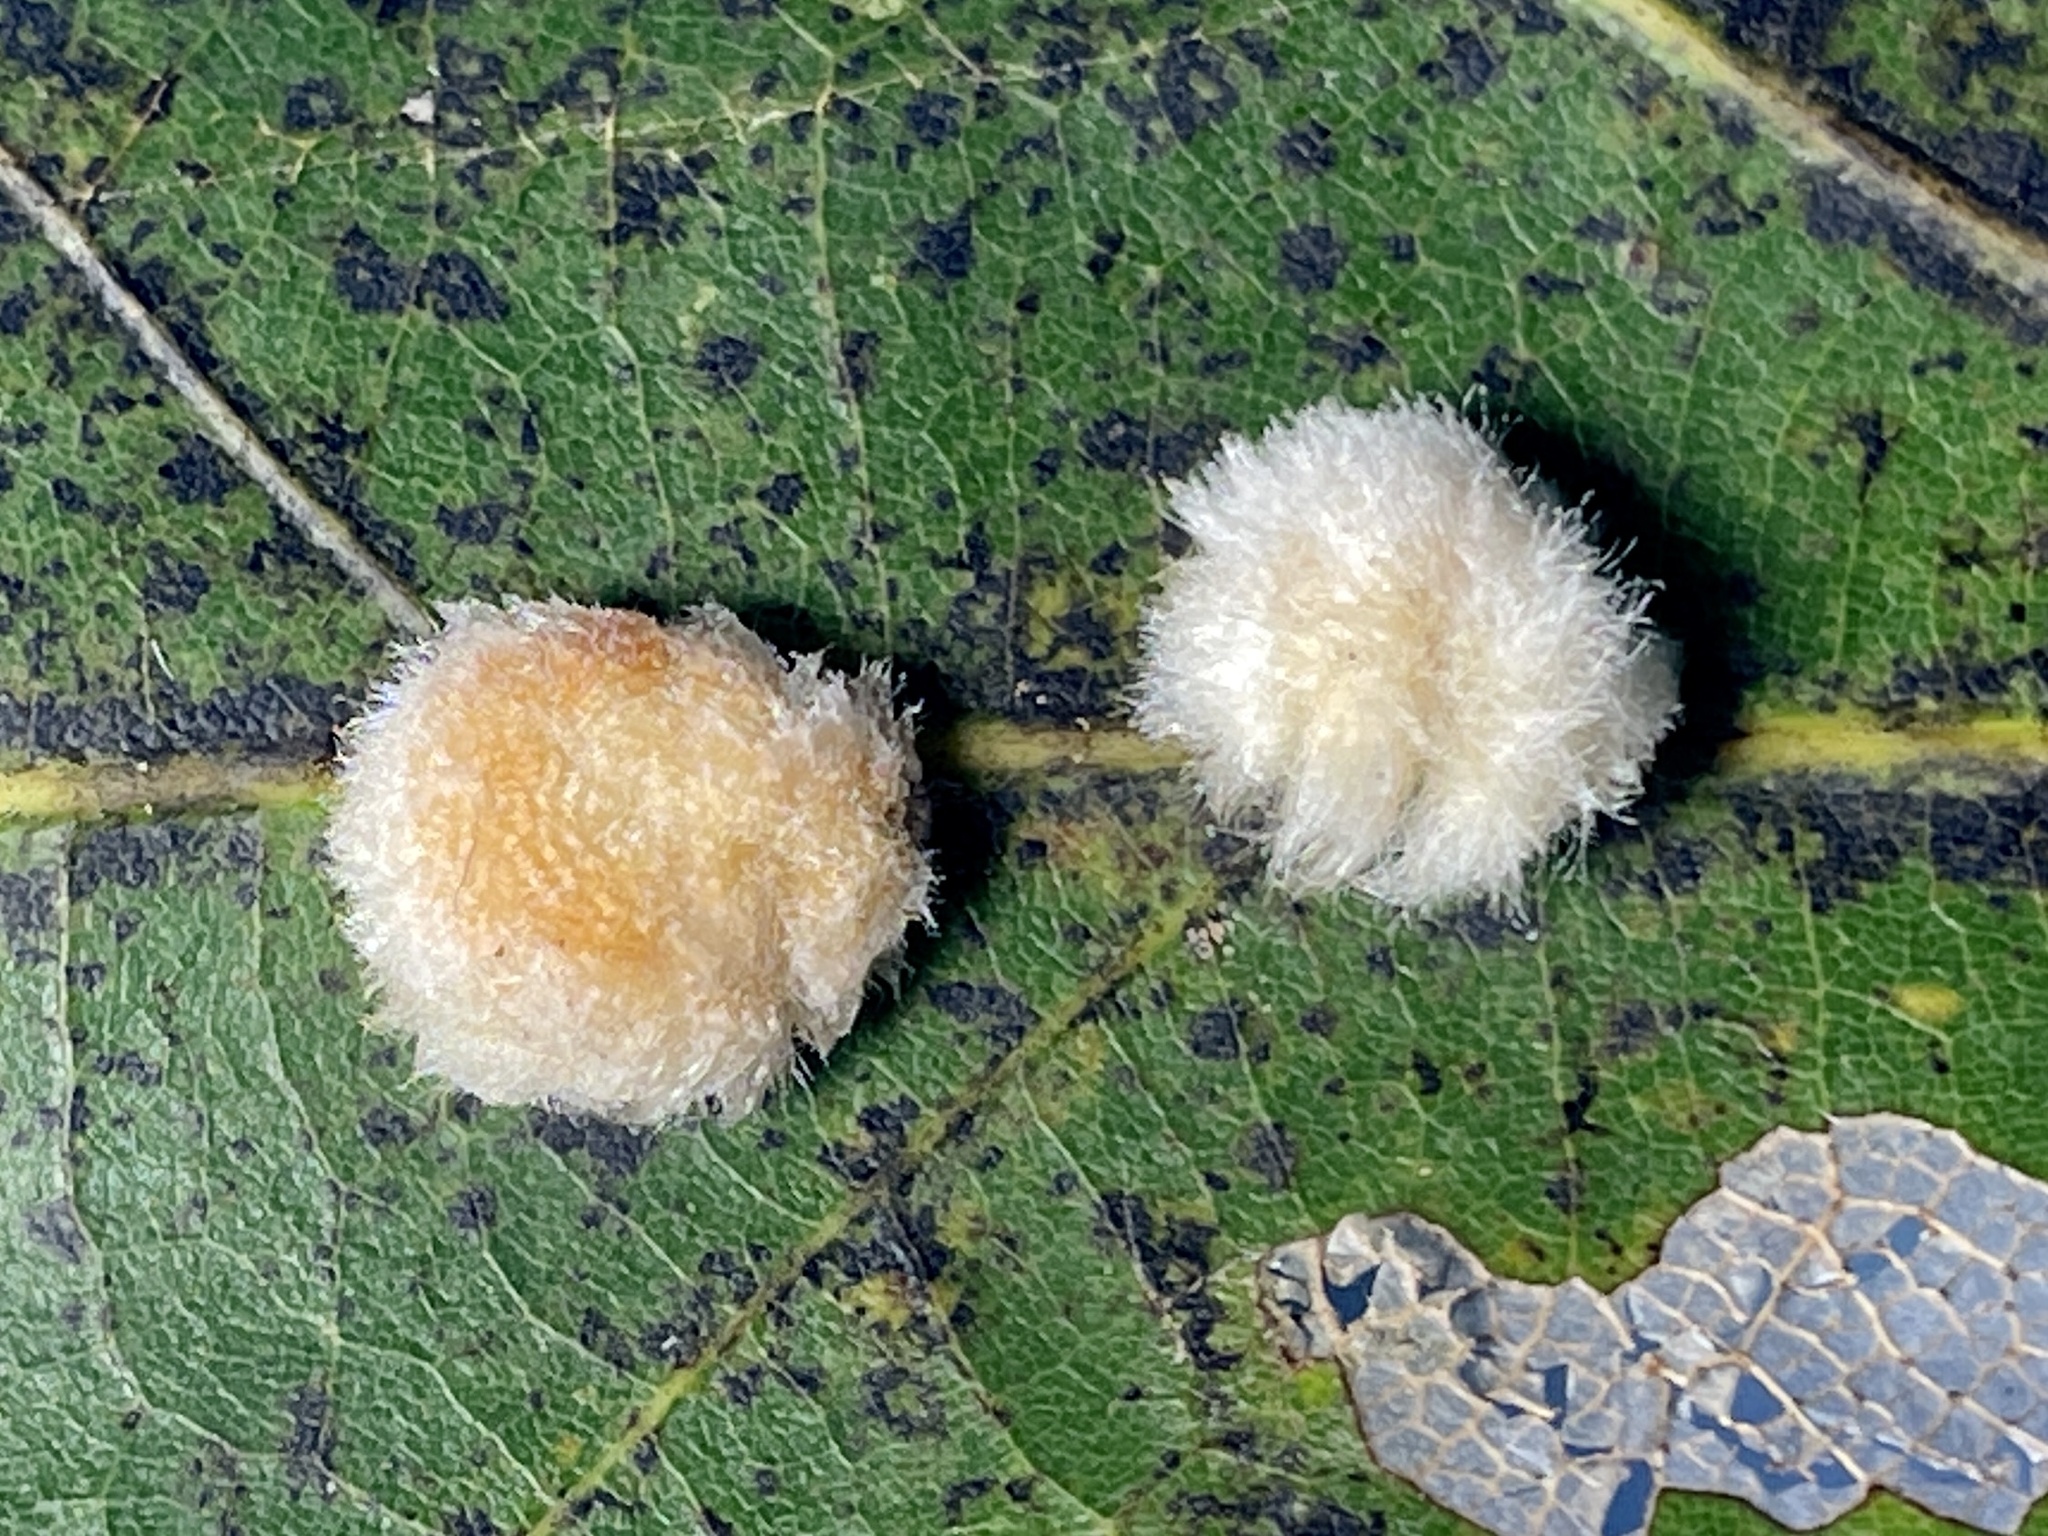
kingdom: Animalia
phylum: Arthropoda
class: Insecta
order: Hymenoptera
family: Cynipidae
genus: Andricus
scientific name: Andricus quercusflocci
